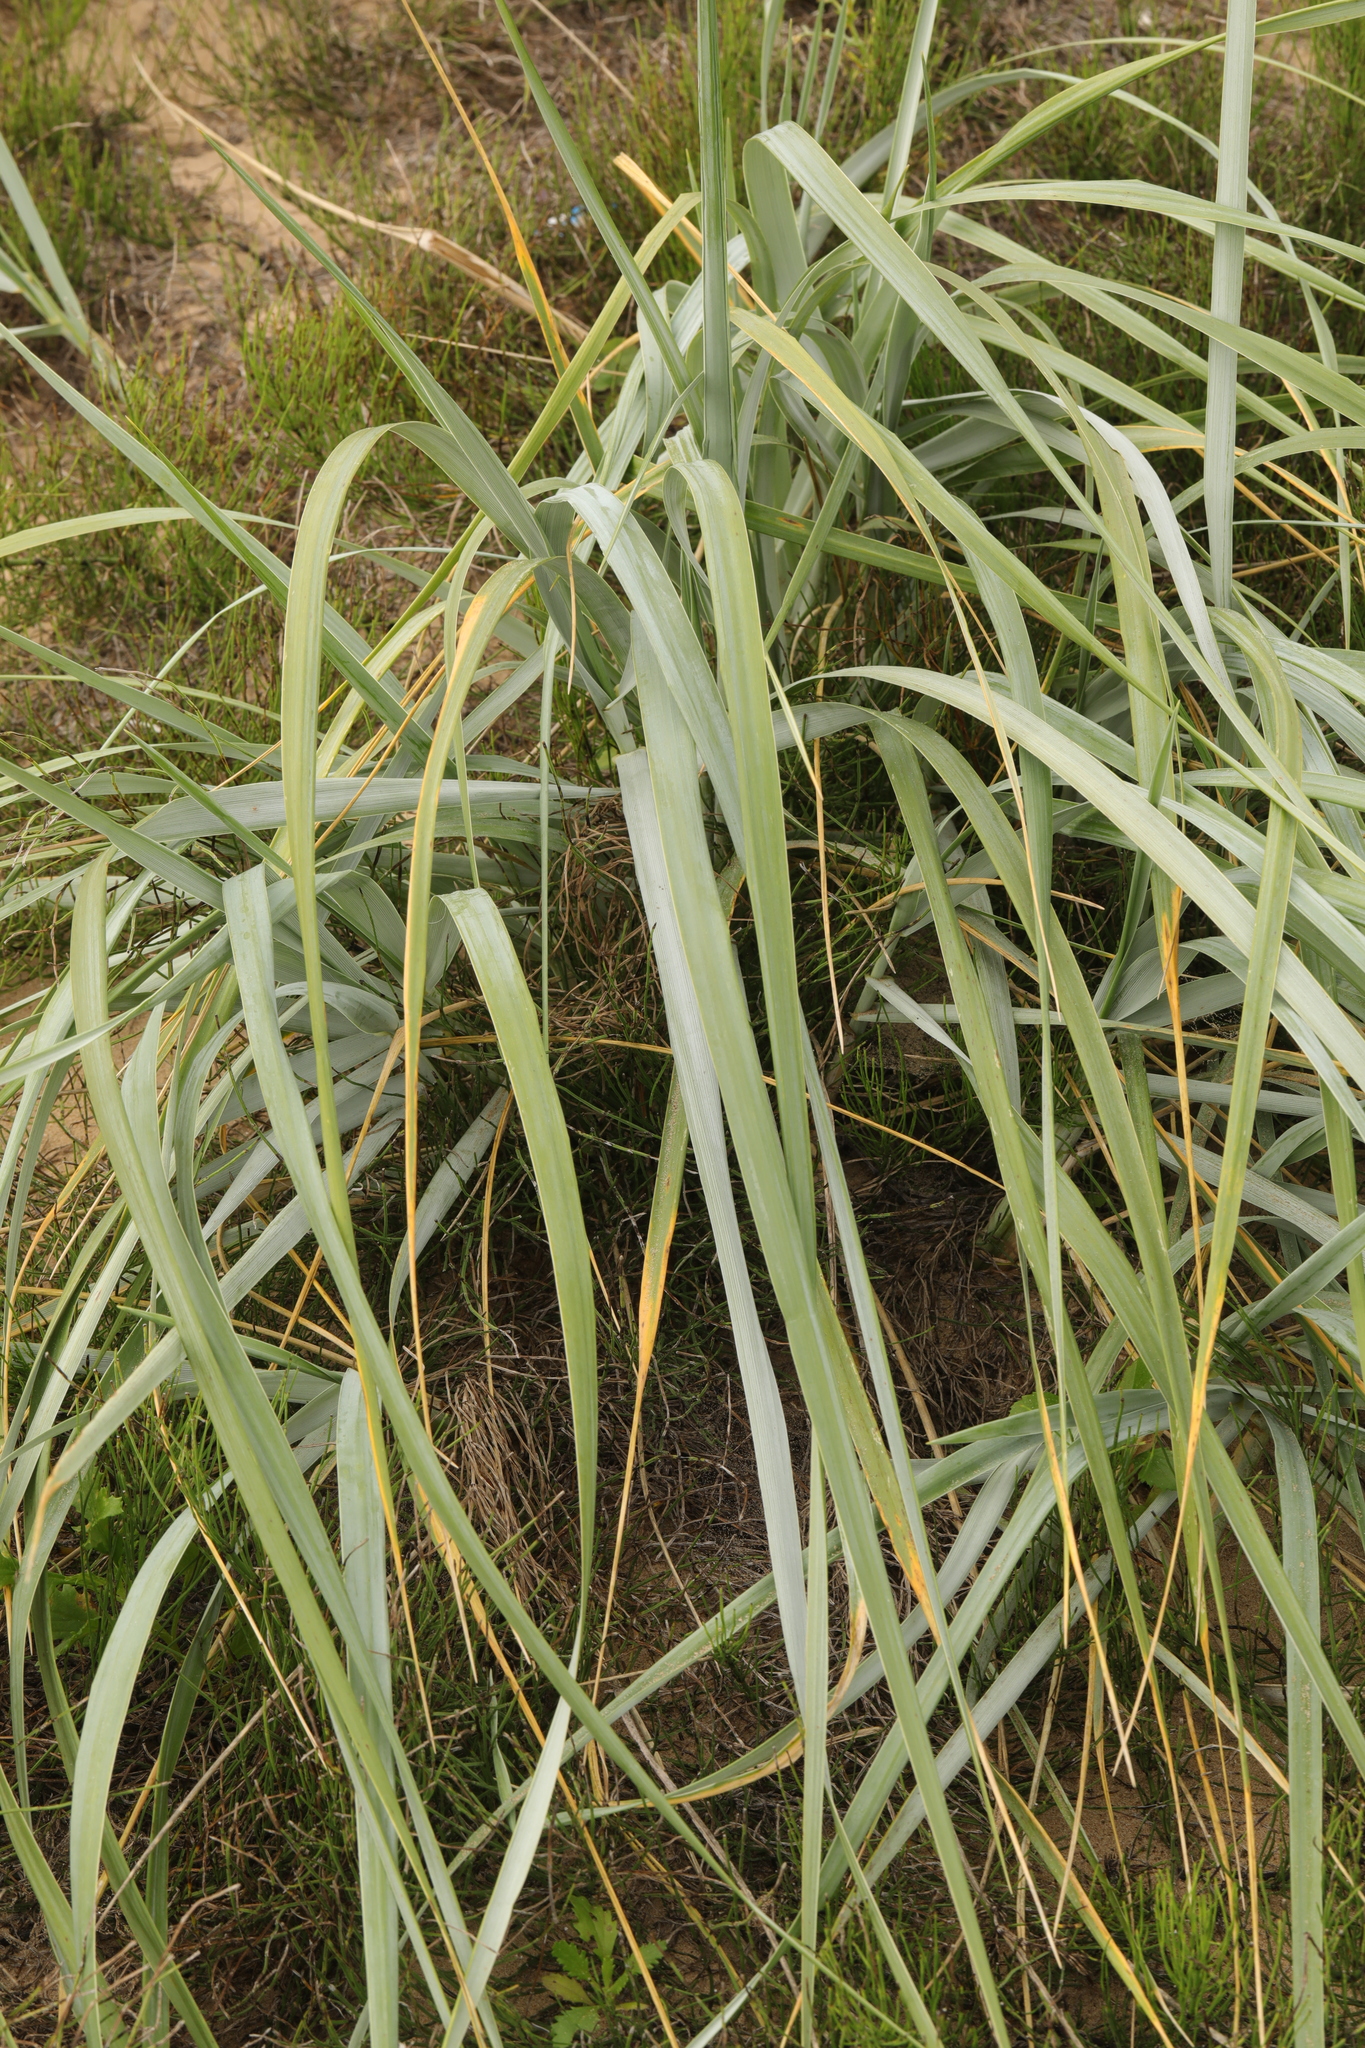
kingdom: Plantae
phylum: Tracheophyta
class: Liliopsida
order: Poales
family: Poaceae
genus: Leymus
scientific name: Leymus arenarius
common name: Lyme-grass
